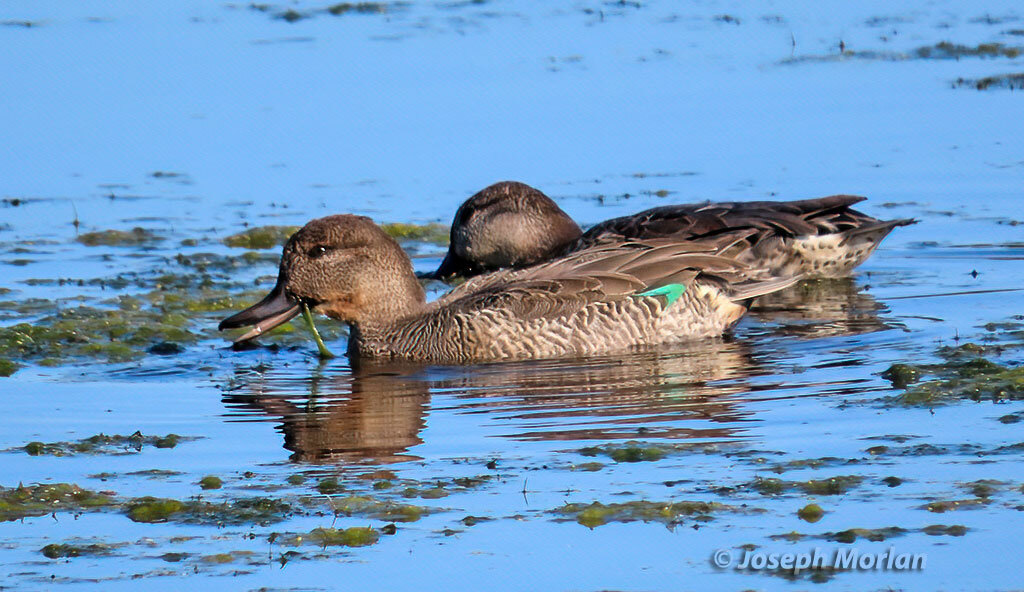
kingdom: Animalia
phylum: Chordata
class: Aves
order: Anseriformes
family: Anatidae
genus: Anas
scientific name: Anas crecca
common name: Eurasian teal
